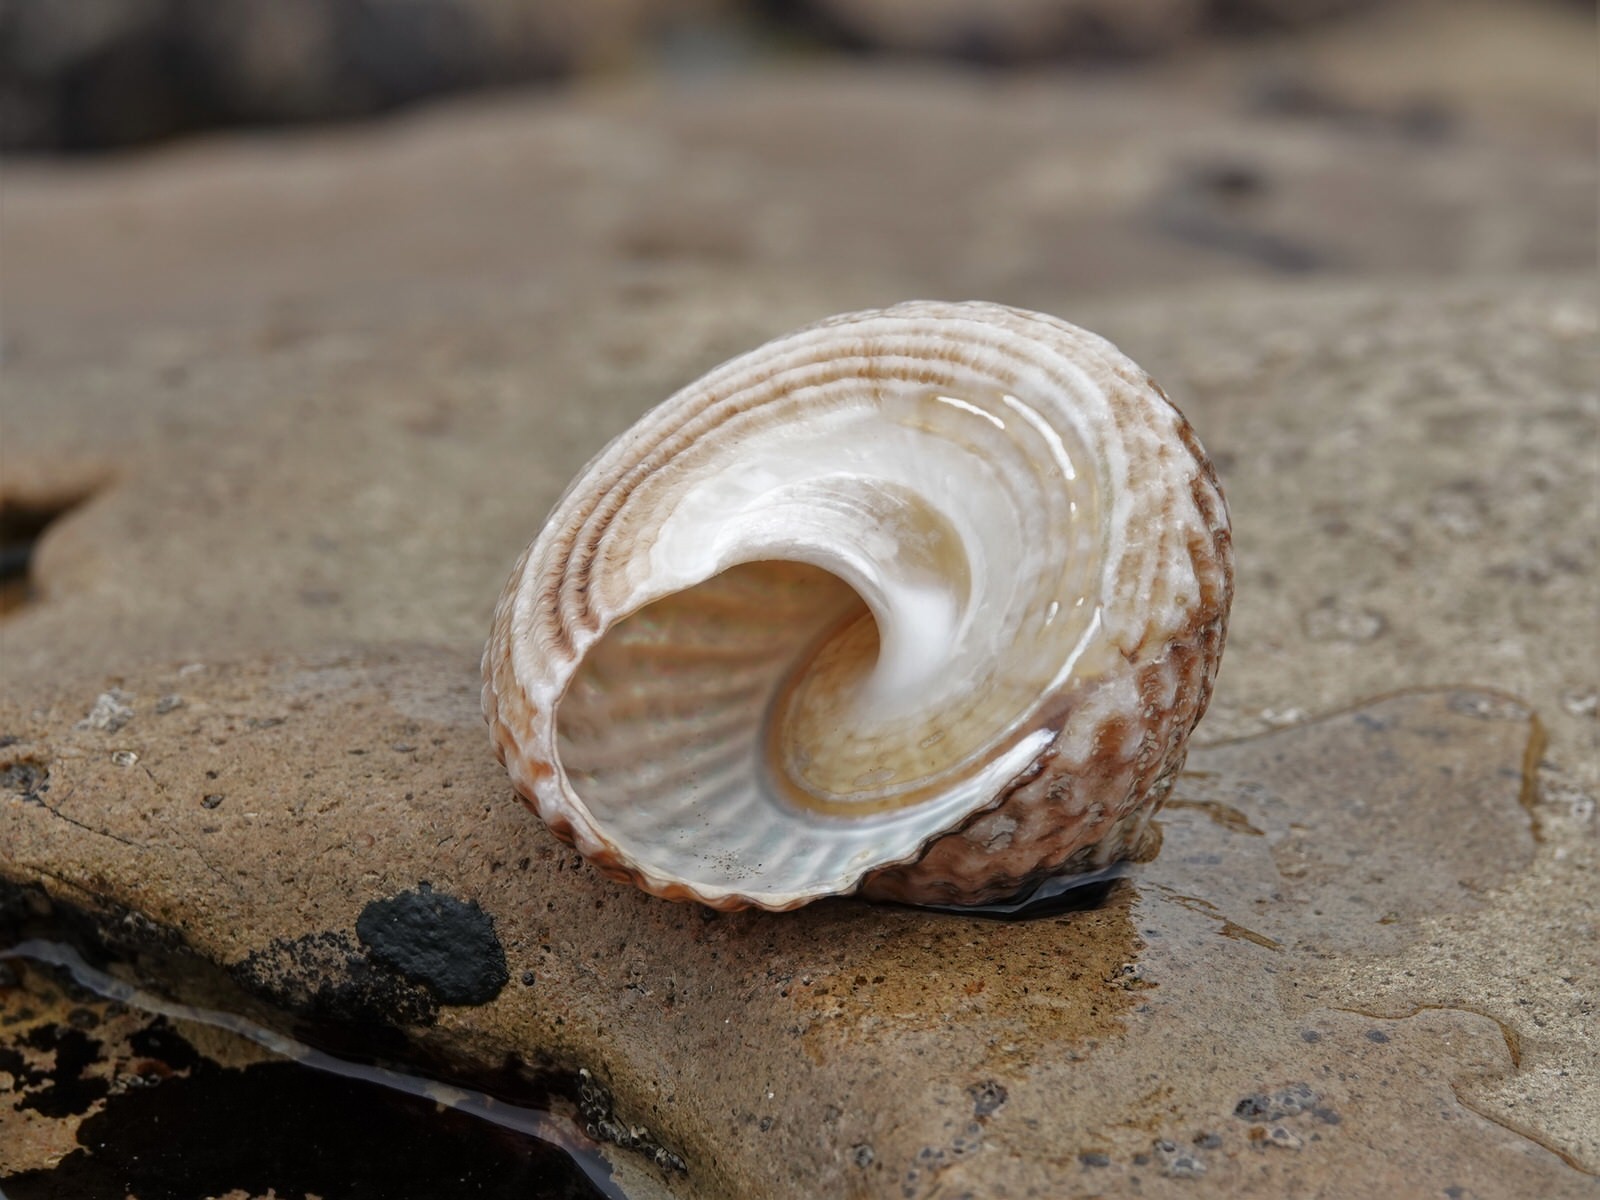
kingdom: Animalia
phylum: Mollusca
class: Gastropoda
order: Trochida
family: Turbinidae
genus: Cookia
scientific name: Cookia sulcata
